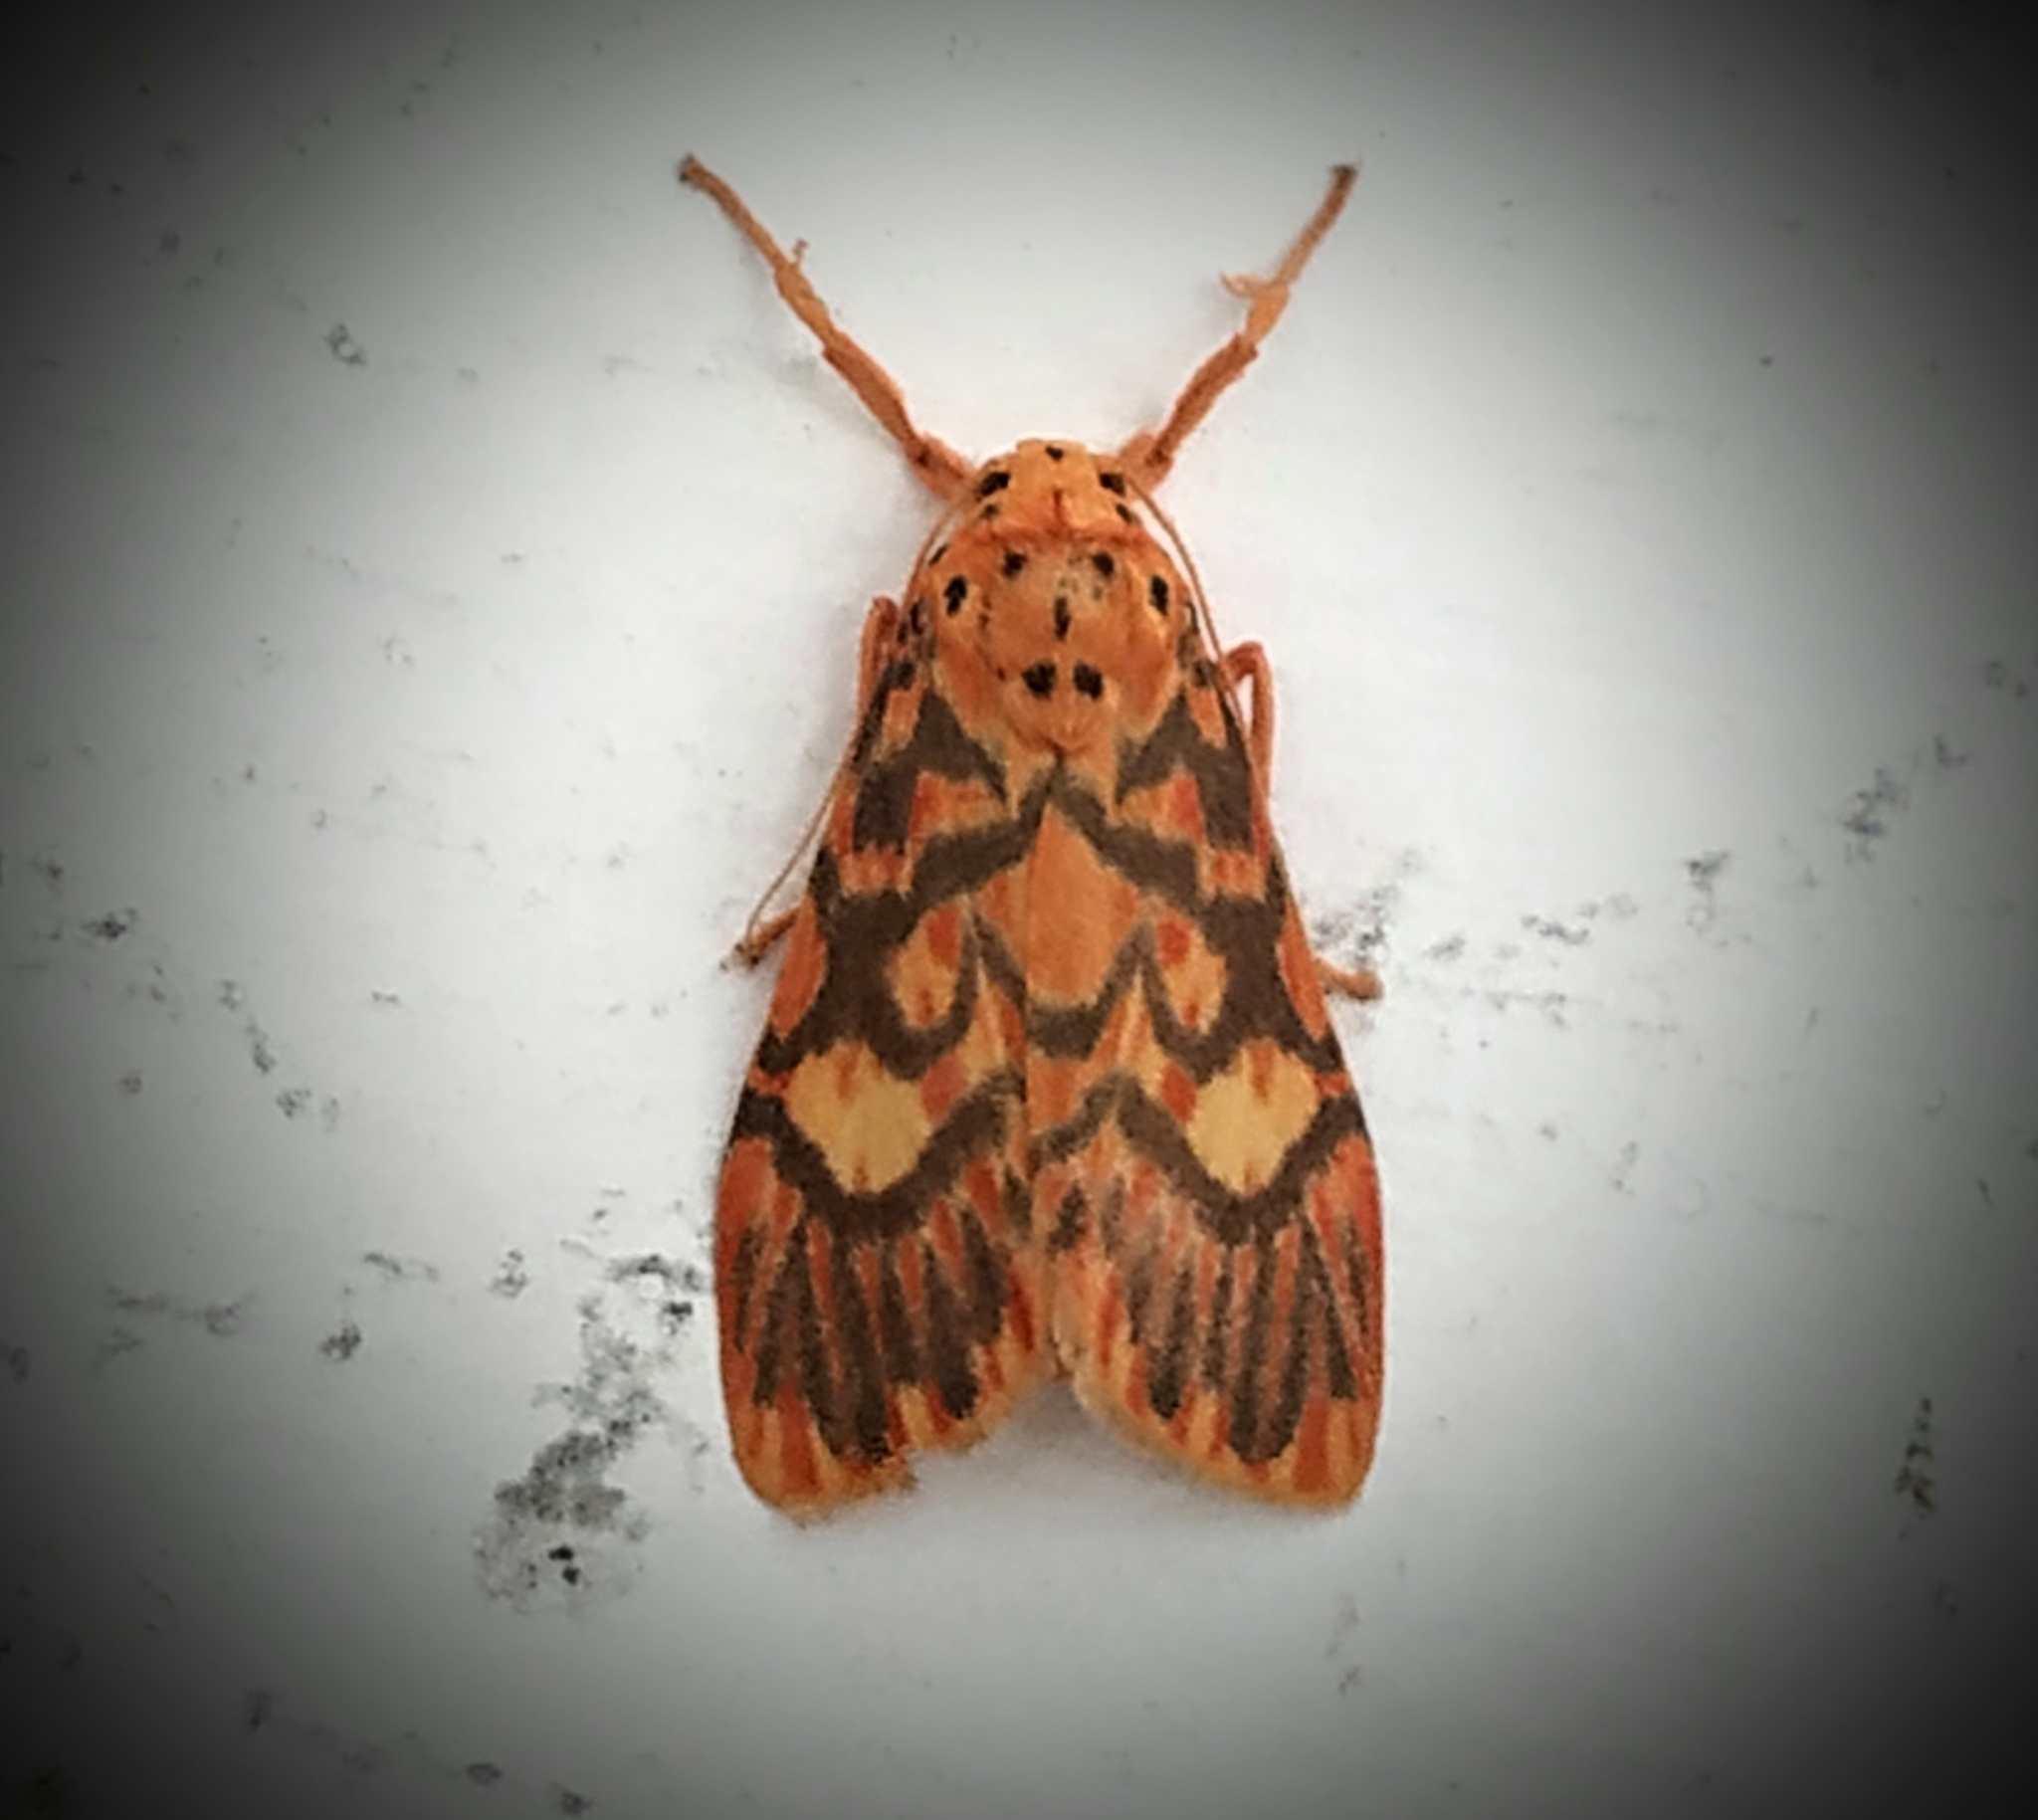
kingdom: Animalia
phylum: Arthropoda
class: Insecta
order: Lepidoptera
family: Erebidae
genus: Ammatho
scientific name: Ammatho cuneonotatus
